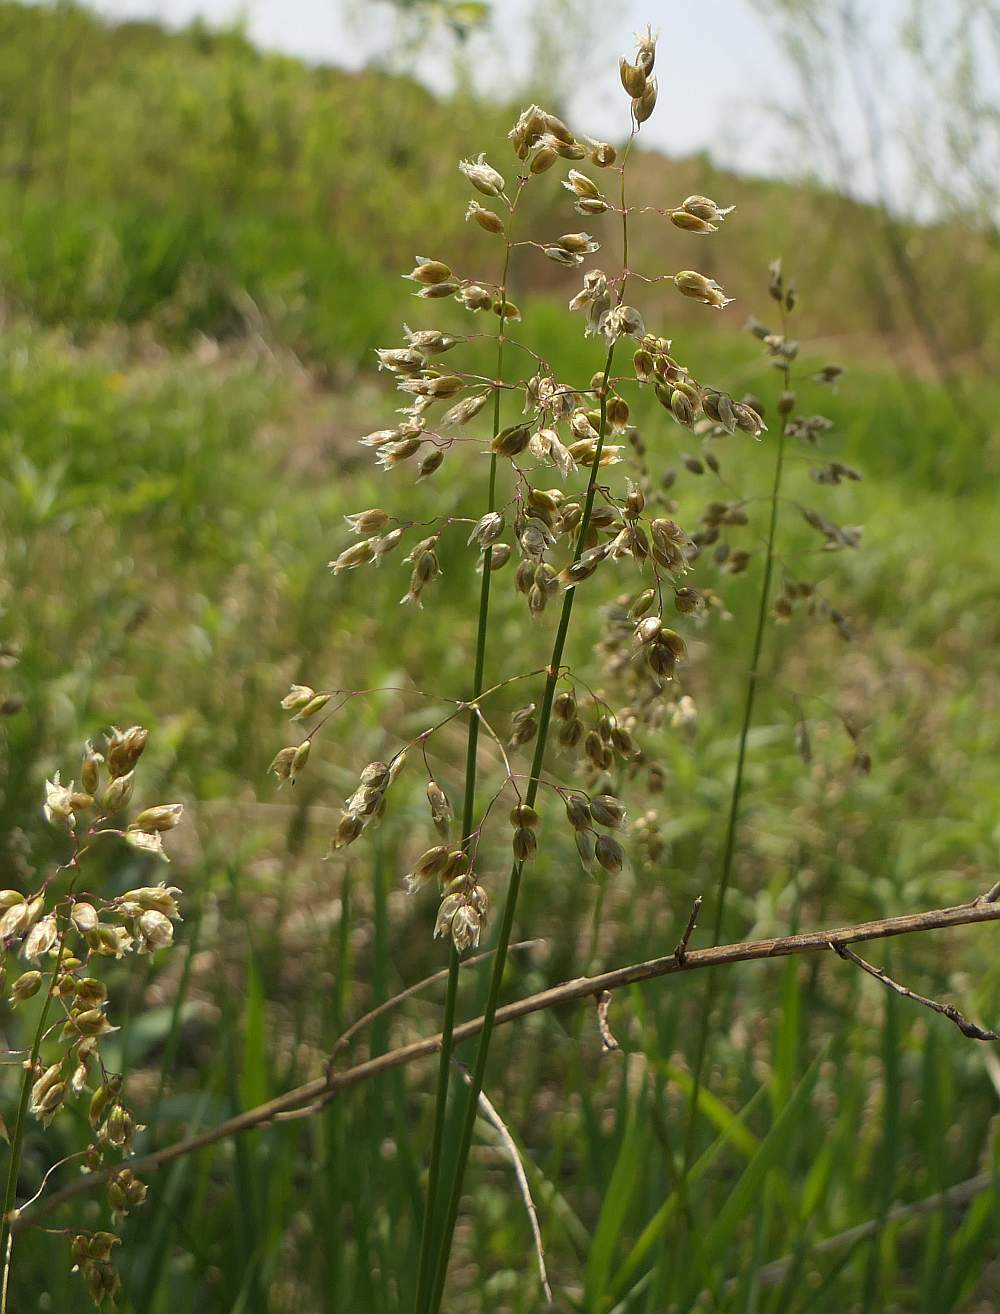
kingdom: Plantae
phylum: Tracheophyta
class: Liliopsida
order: Poales
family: Poaceae
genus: Anthoxanthum
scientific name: Anthoxanthum nitens
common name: Holy grass
